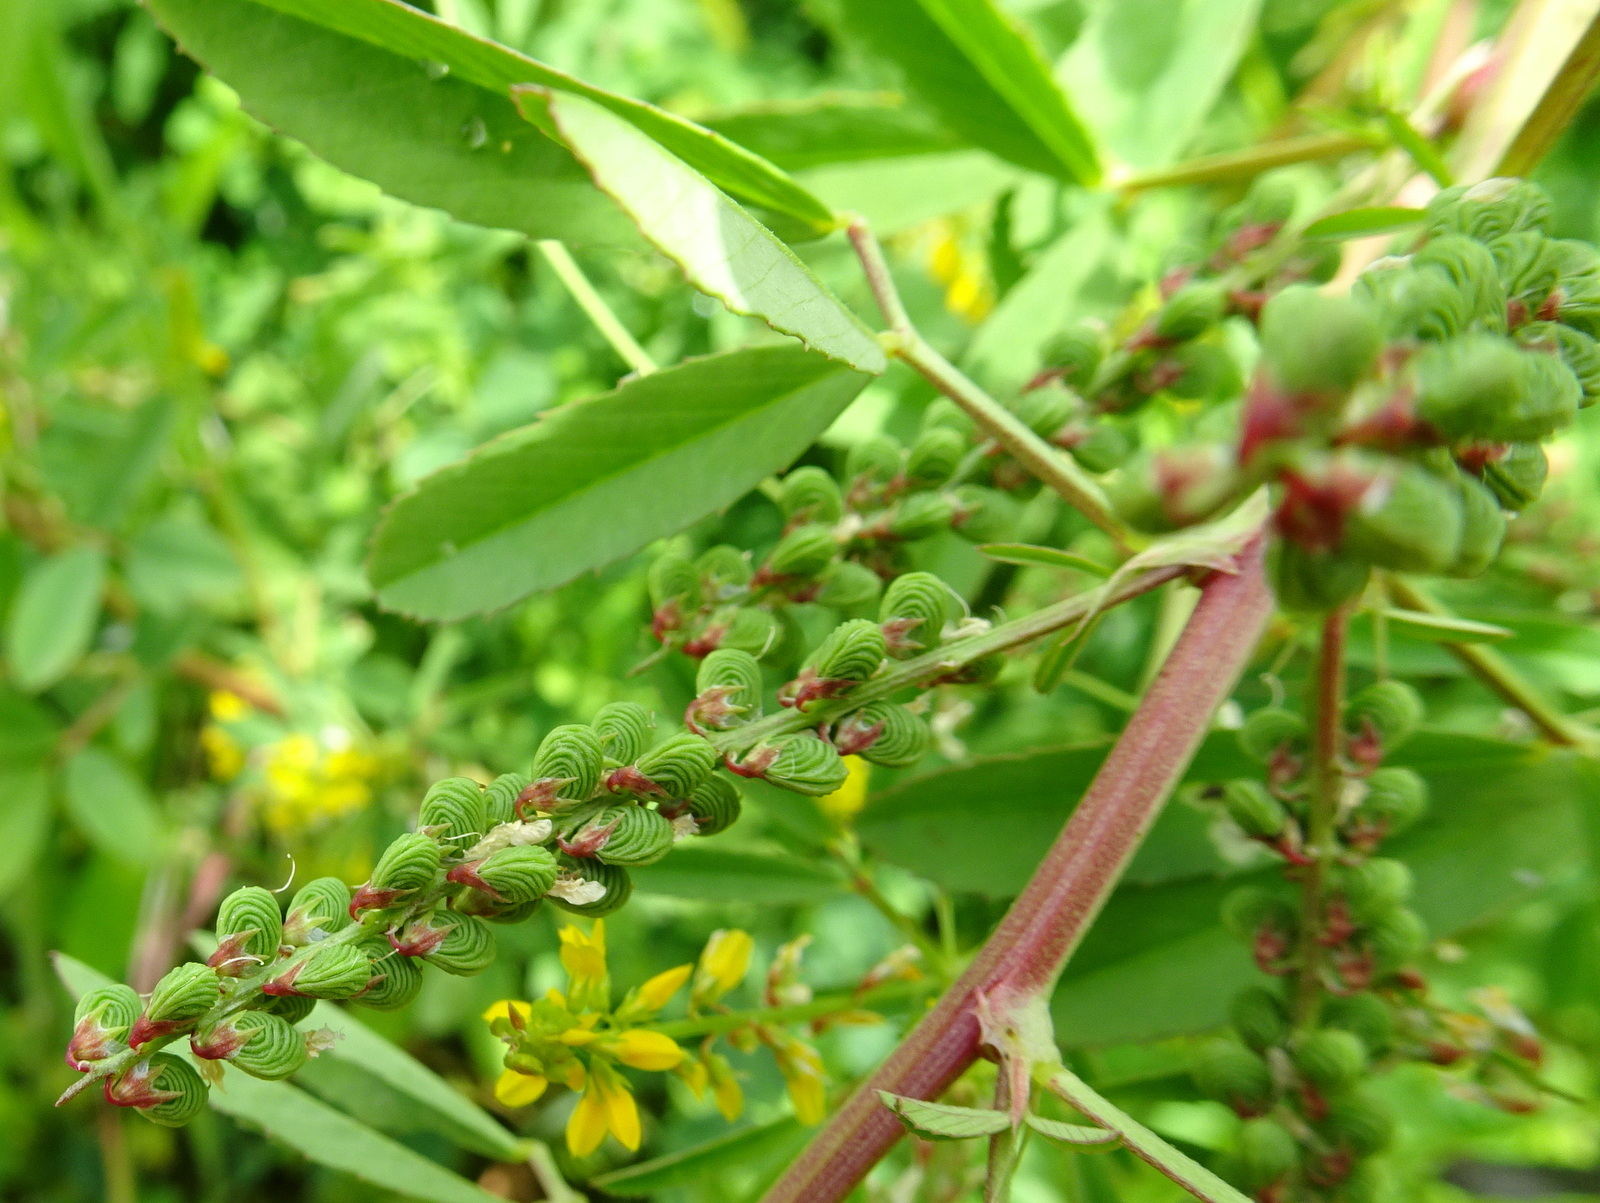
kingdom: Plantae
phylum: Tracheophyta
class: Magnoliopsida
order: Fabales
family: Fabaceae
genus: Melilotus
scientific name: Melilotus sulcatus
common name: Furrowed melilot
